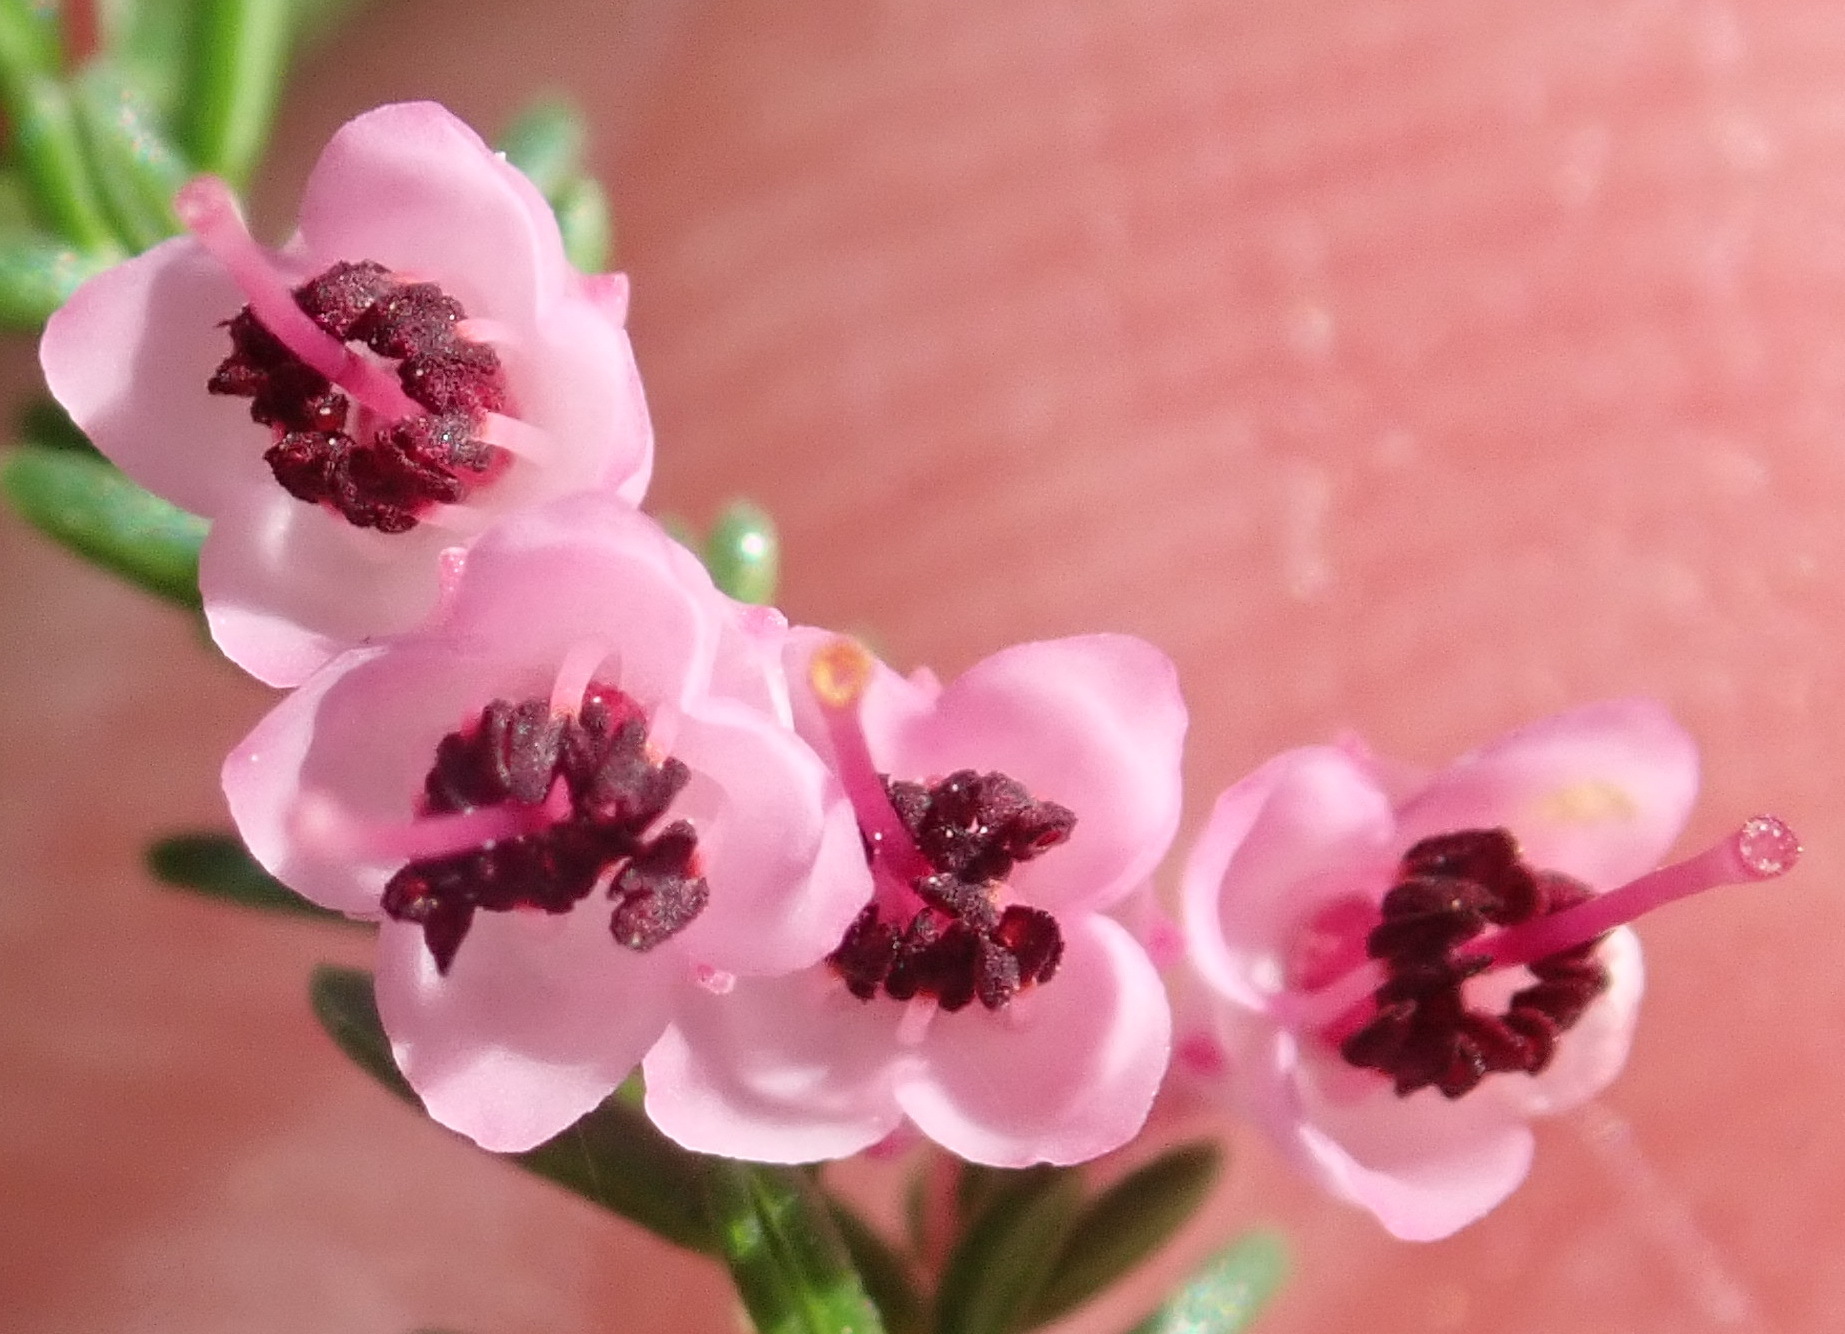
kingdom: Plantae
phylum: Tracheophyta
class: Magnoliopsida
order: Ericales
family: Ericaceae
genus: Erica
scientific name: Erica sparsa
